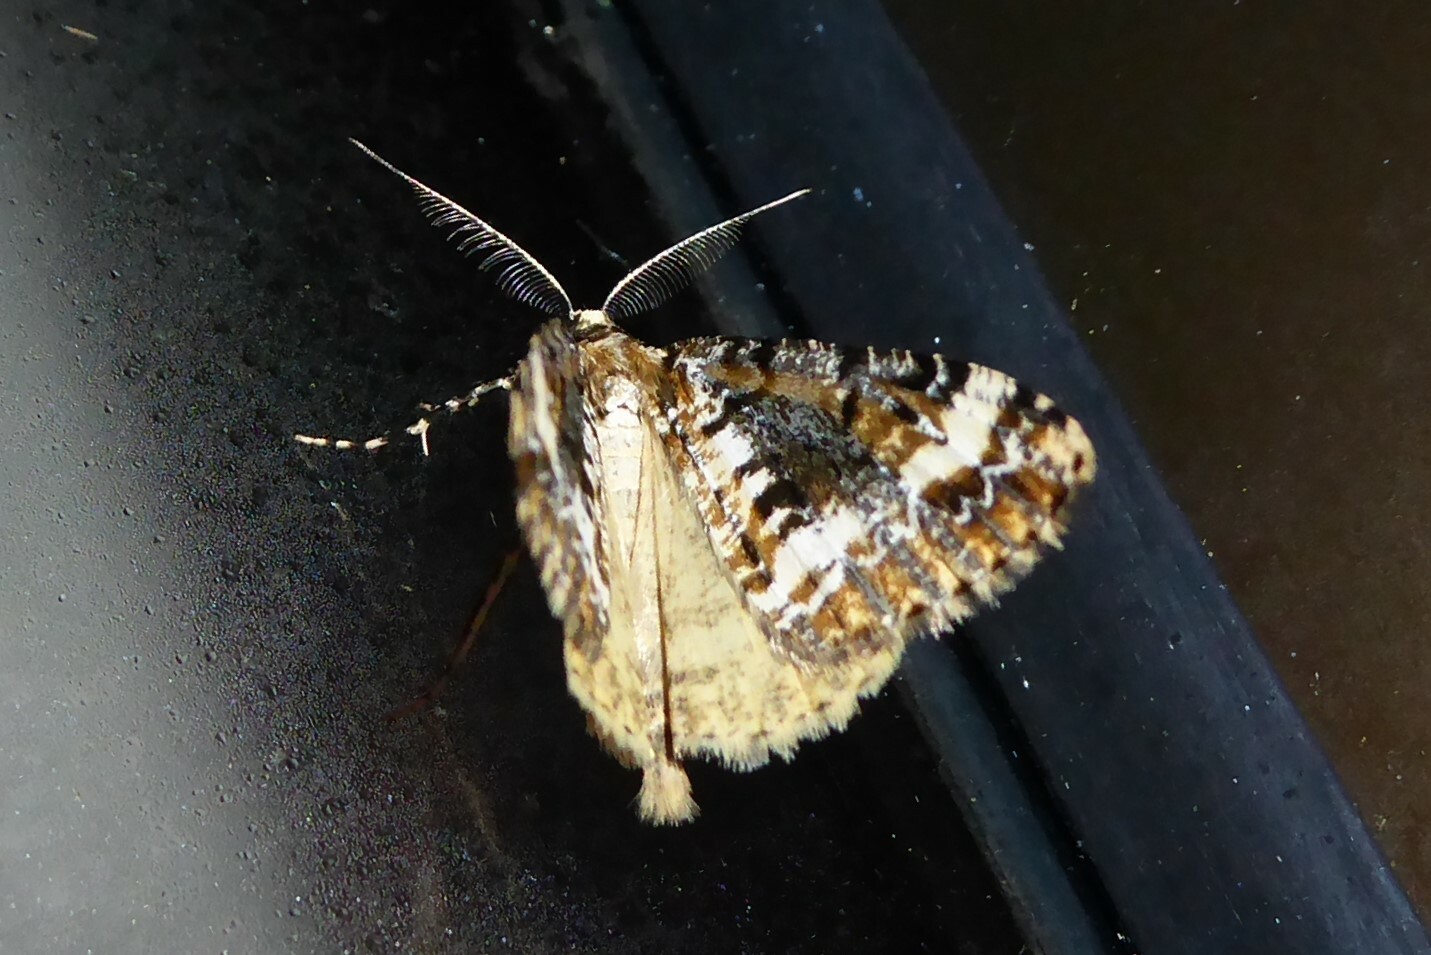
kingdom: Animalia
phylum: Arthropoda
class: Insecta
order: Lepidoptera
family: Geometridae
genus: Pseudocoremia
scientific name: Pseudocoremia leucelaea
